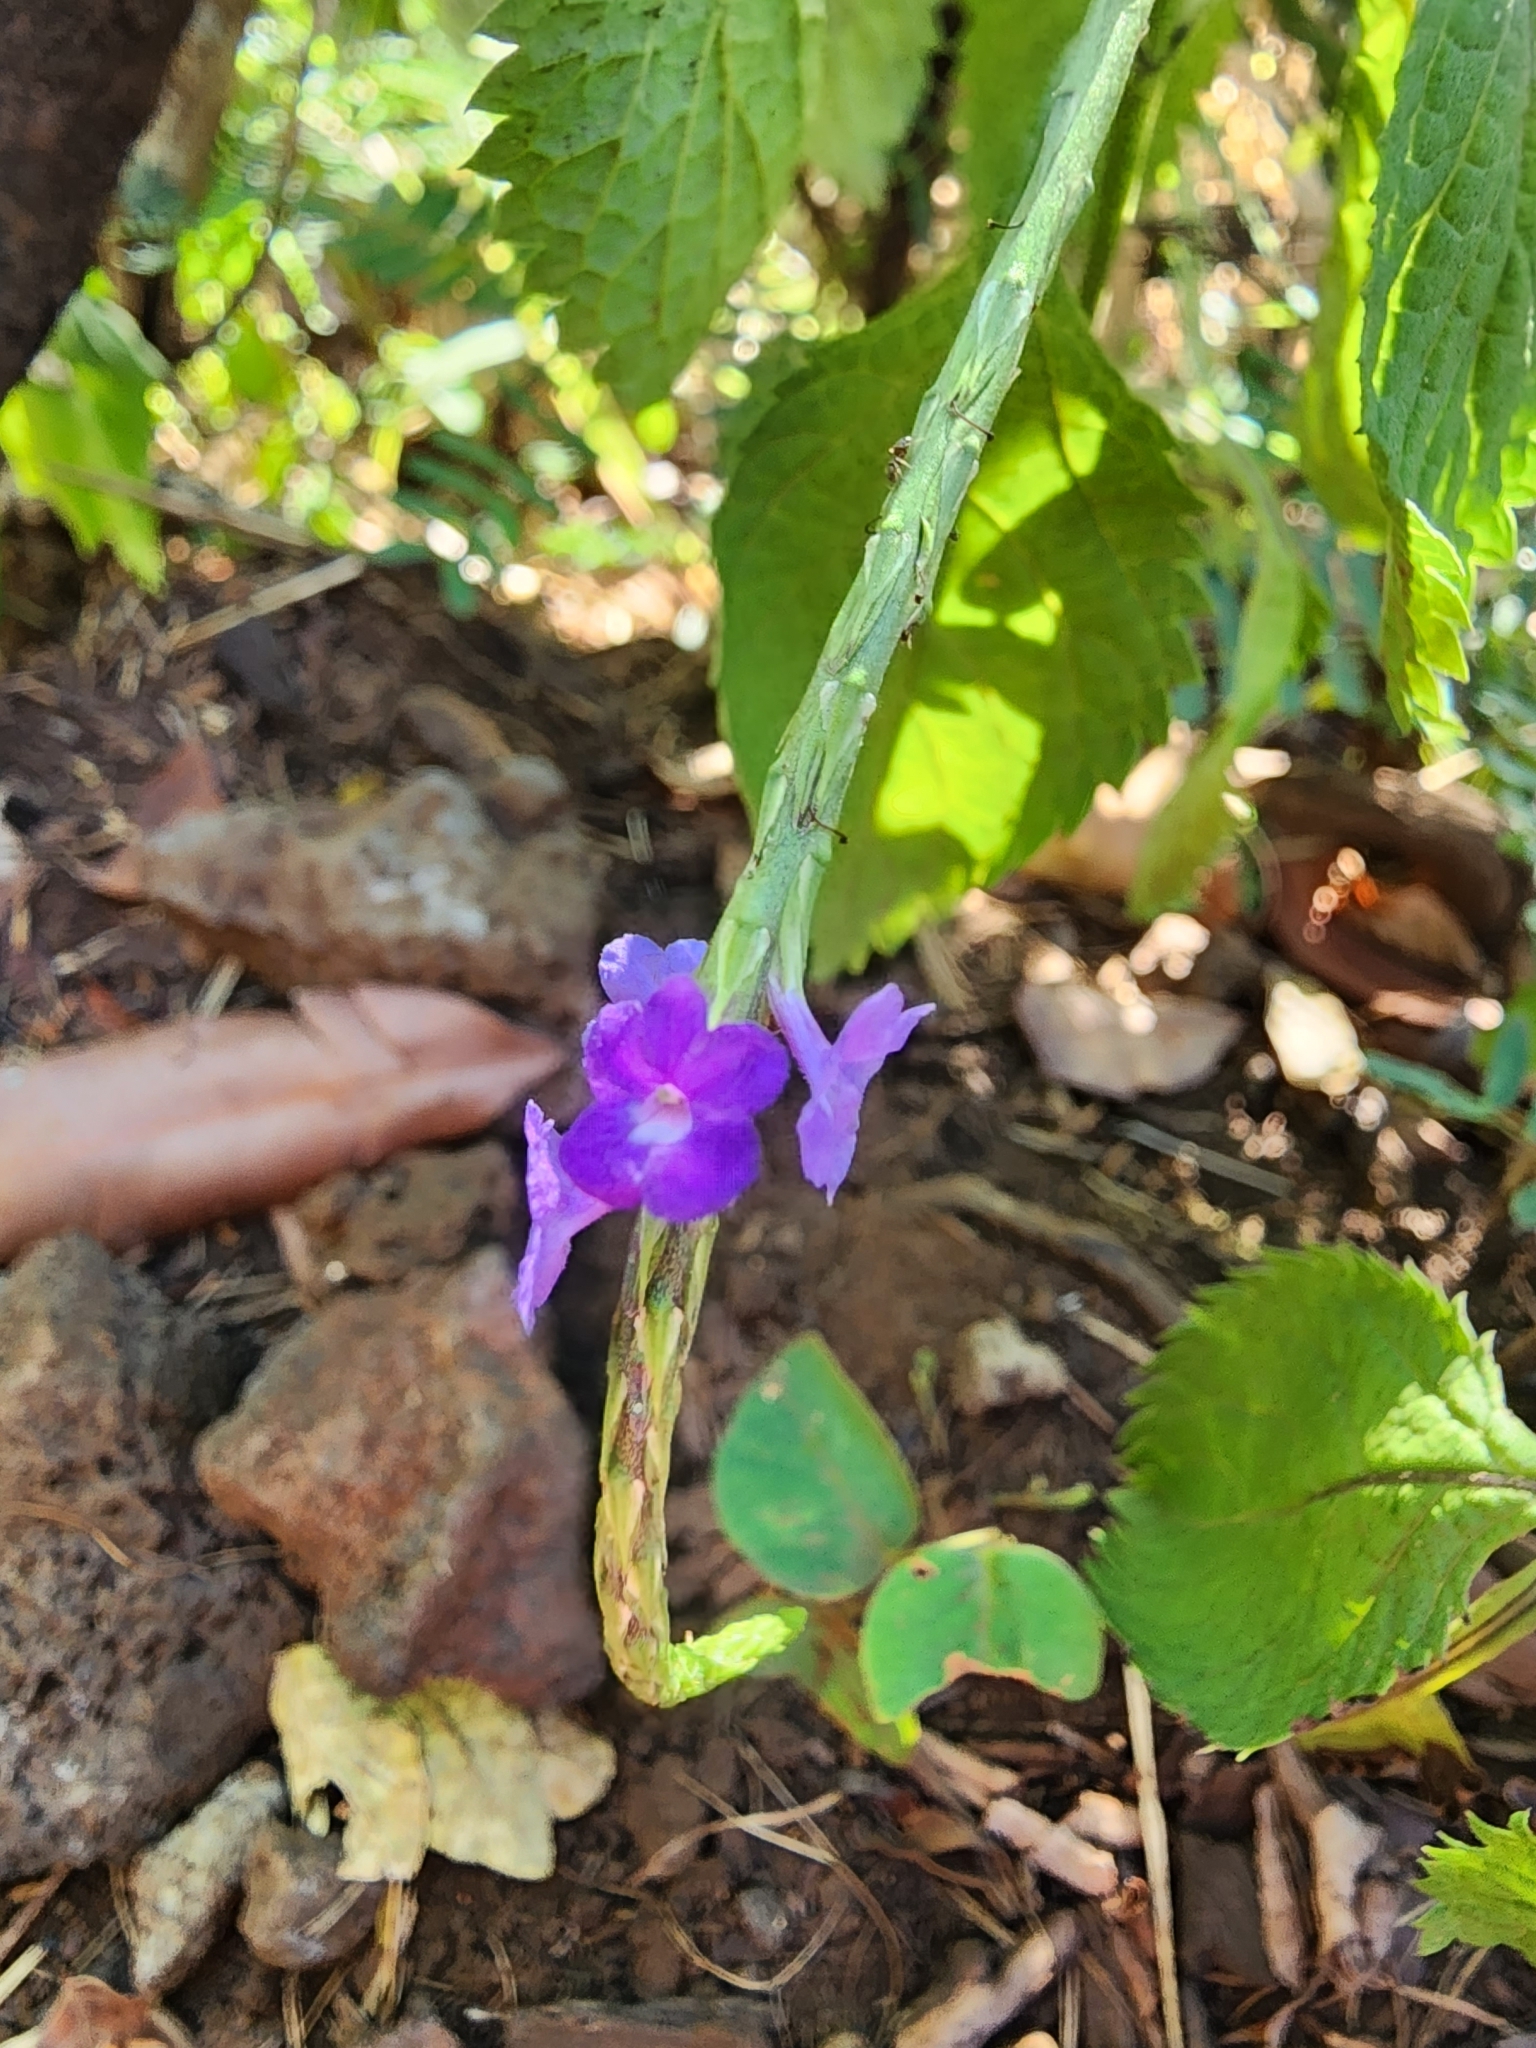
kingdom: Plantae
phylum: Tracheophyta
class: Magnoliopsida
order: Lamiales
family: Verbenaceae
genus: Stachytarpheta
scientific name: Stachytarpheta cayennensis
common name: Cayenne porterweed
